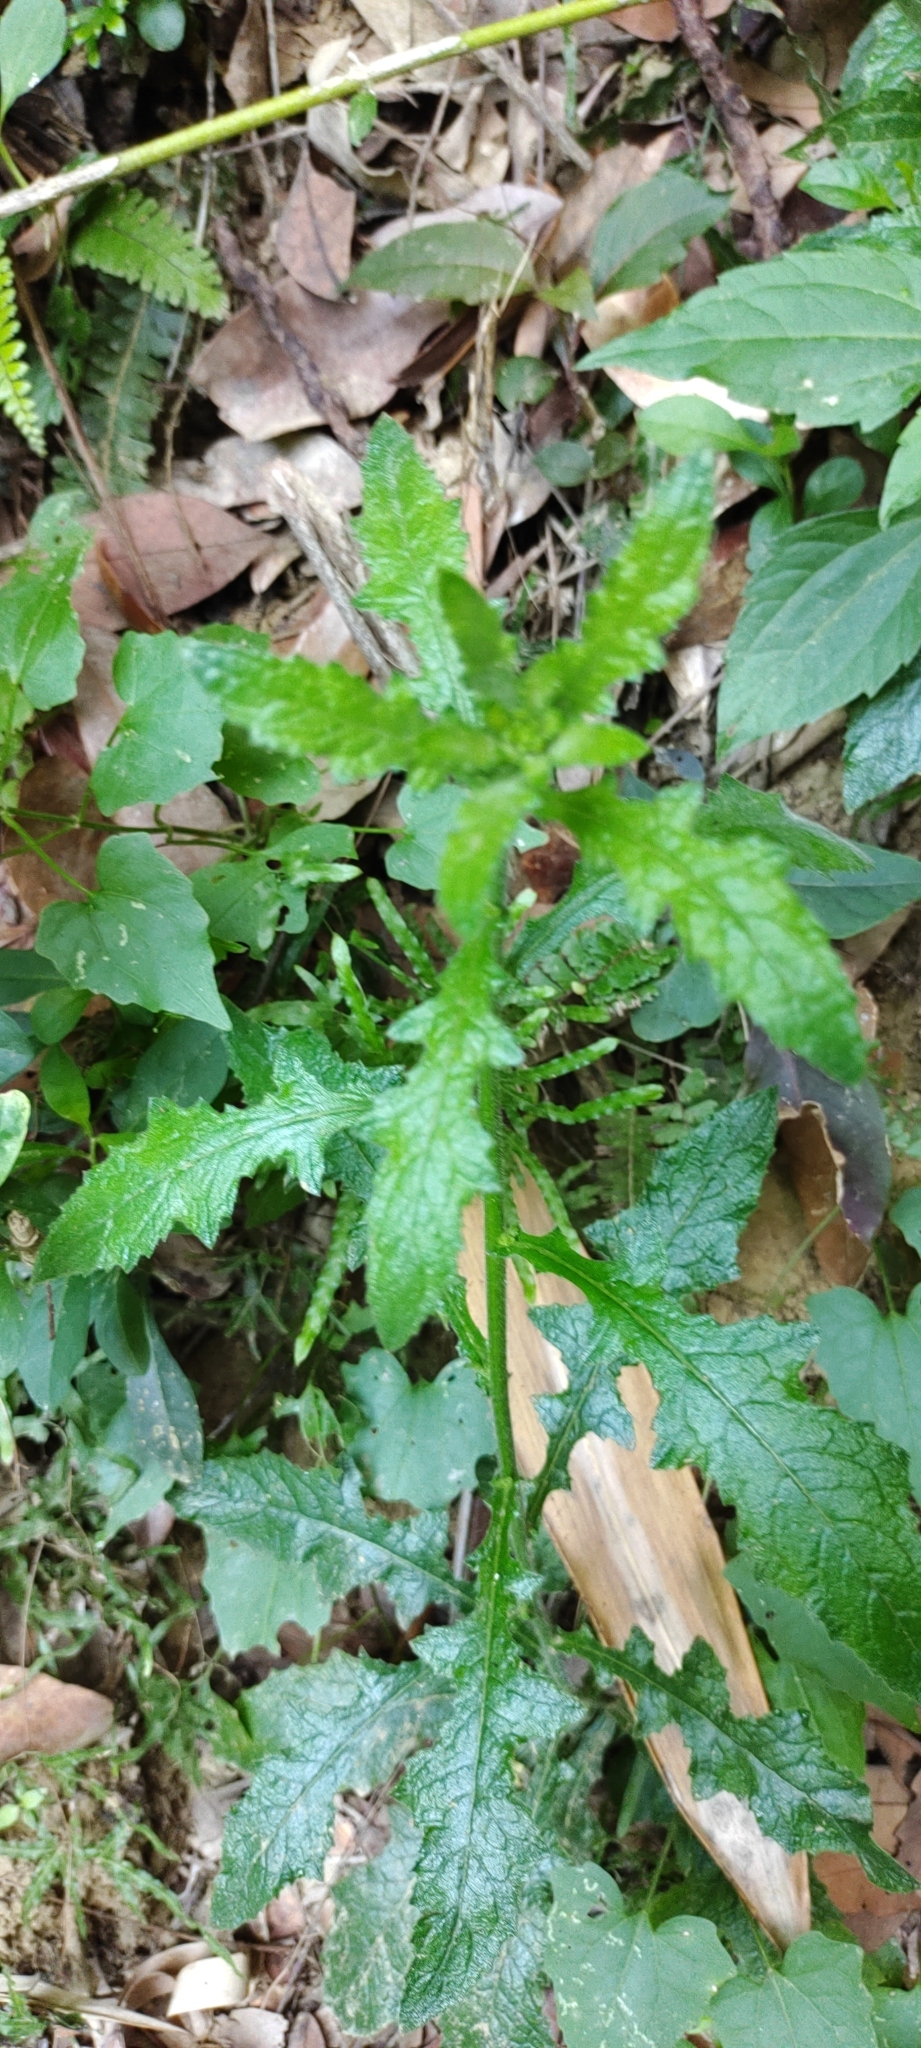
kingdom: Plantae
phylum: Tracheophyta
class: Magnoliopsida
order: Asterales
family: Asteraceae
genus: Blumea
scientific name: Blumea sinuata
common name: Cutleaf false oxtongue
